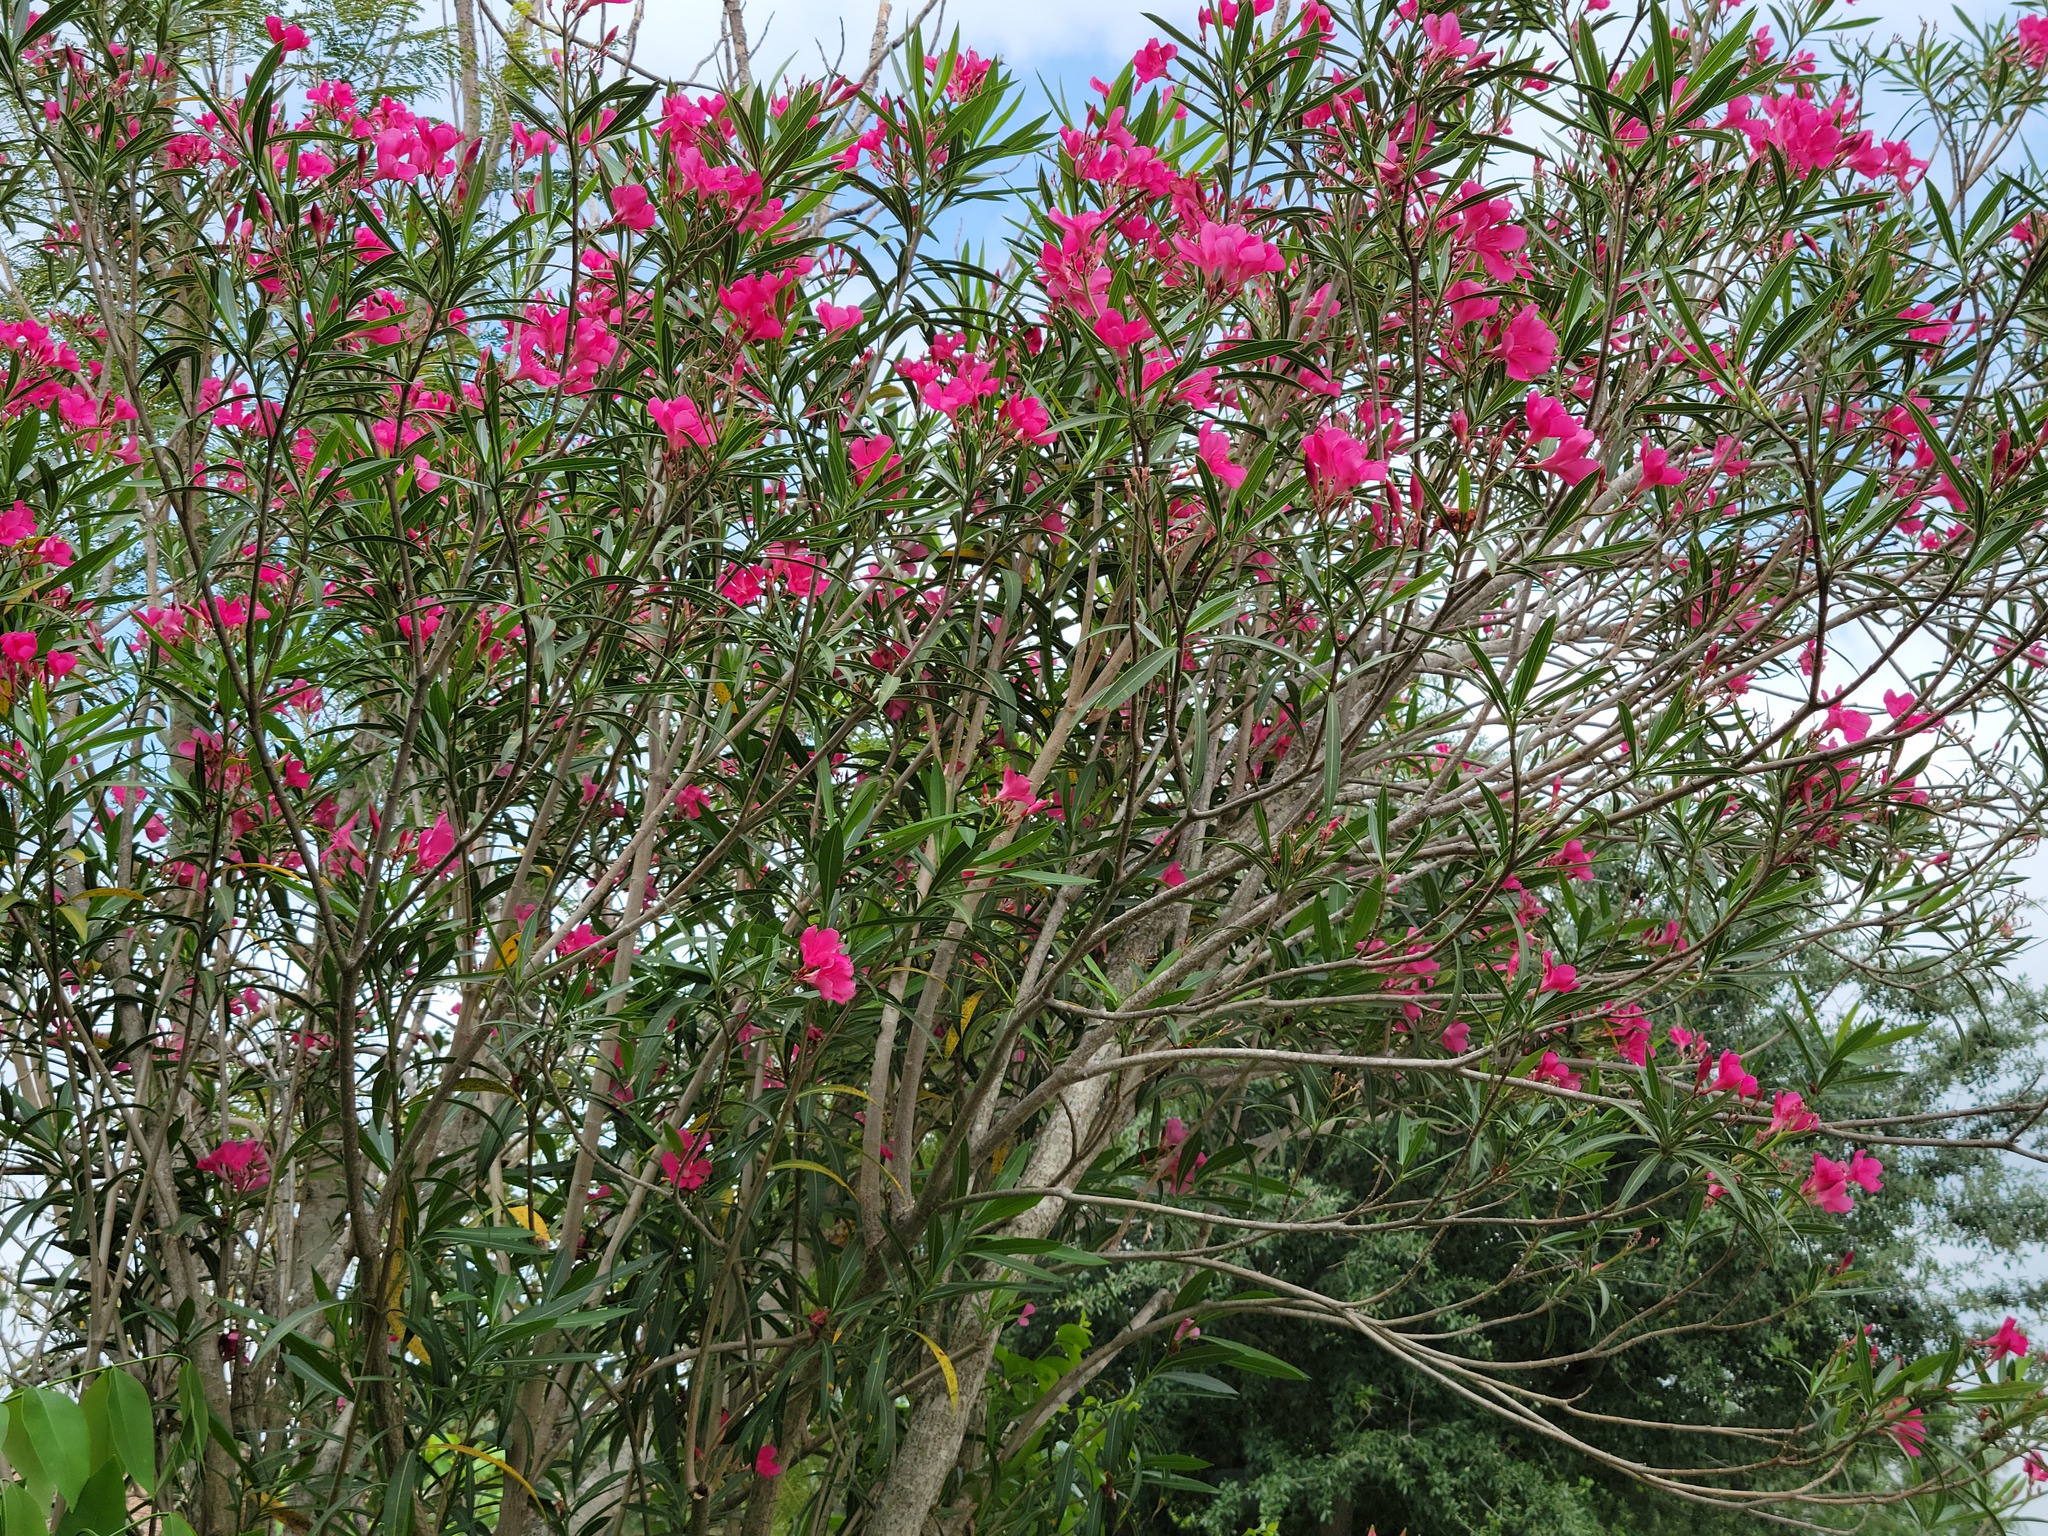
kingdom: Plantae
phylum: Tracheophyta
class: Magnoliopsida
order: Gentianales
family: Apocynaceae
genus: Nerium
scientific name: Nerium oleander
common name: Oleander
